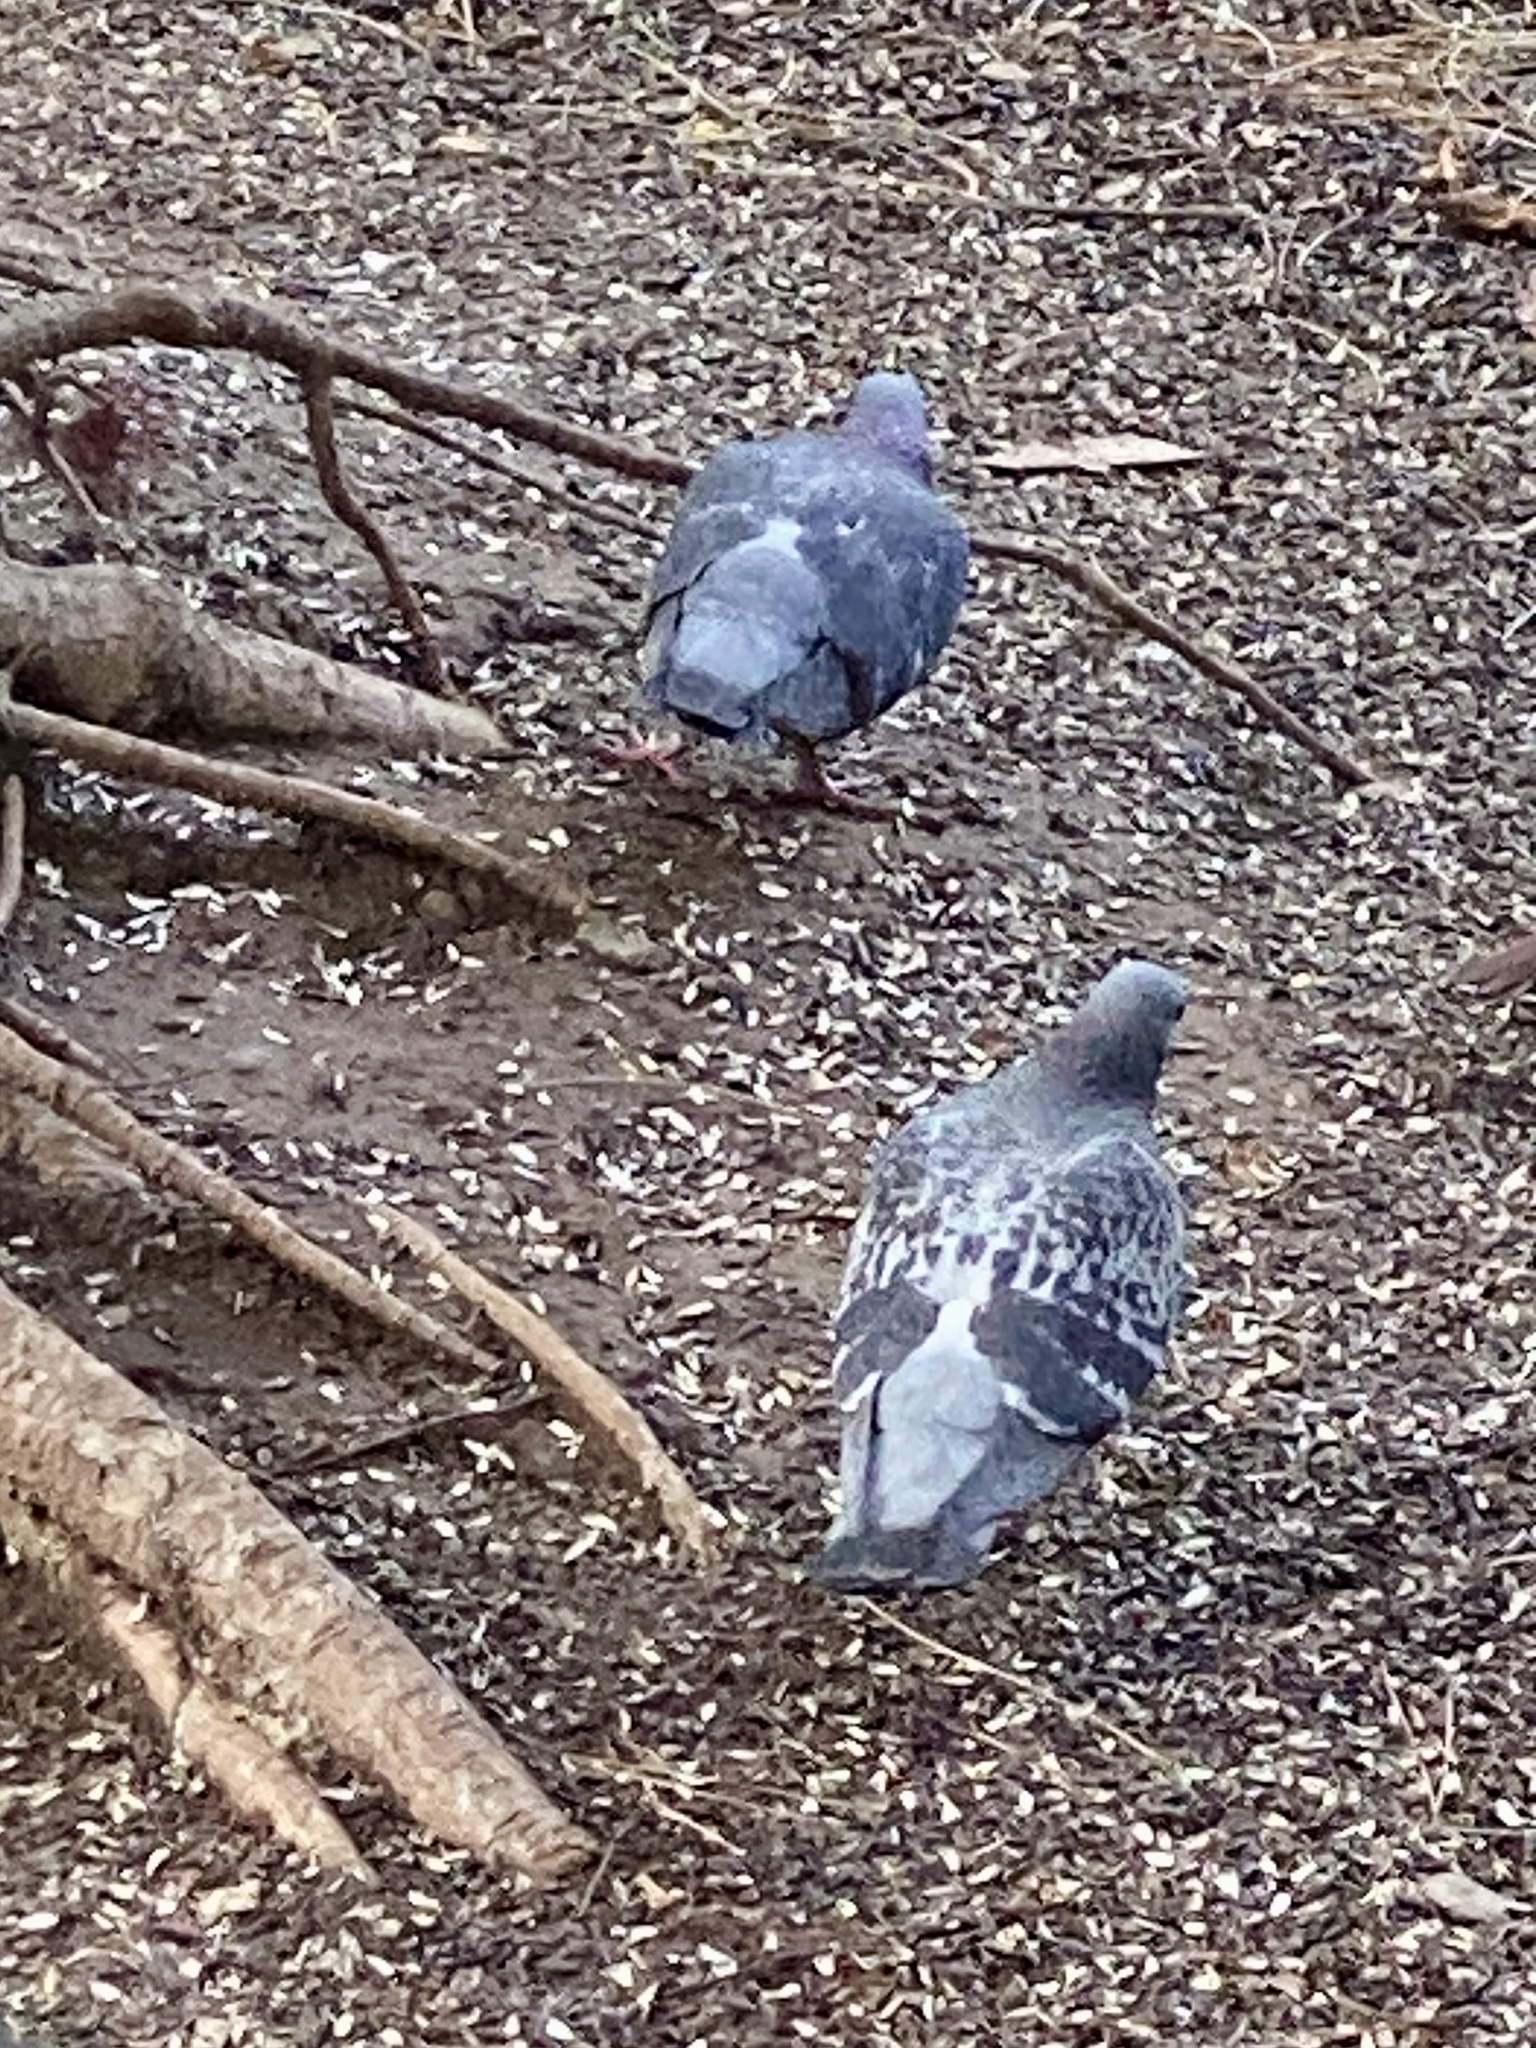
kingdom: Animalia
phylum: Chordata
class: Aves
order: Columbiformes
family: Columbidae
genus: Columba
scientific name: Columba livia
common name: Rock pigeon
